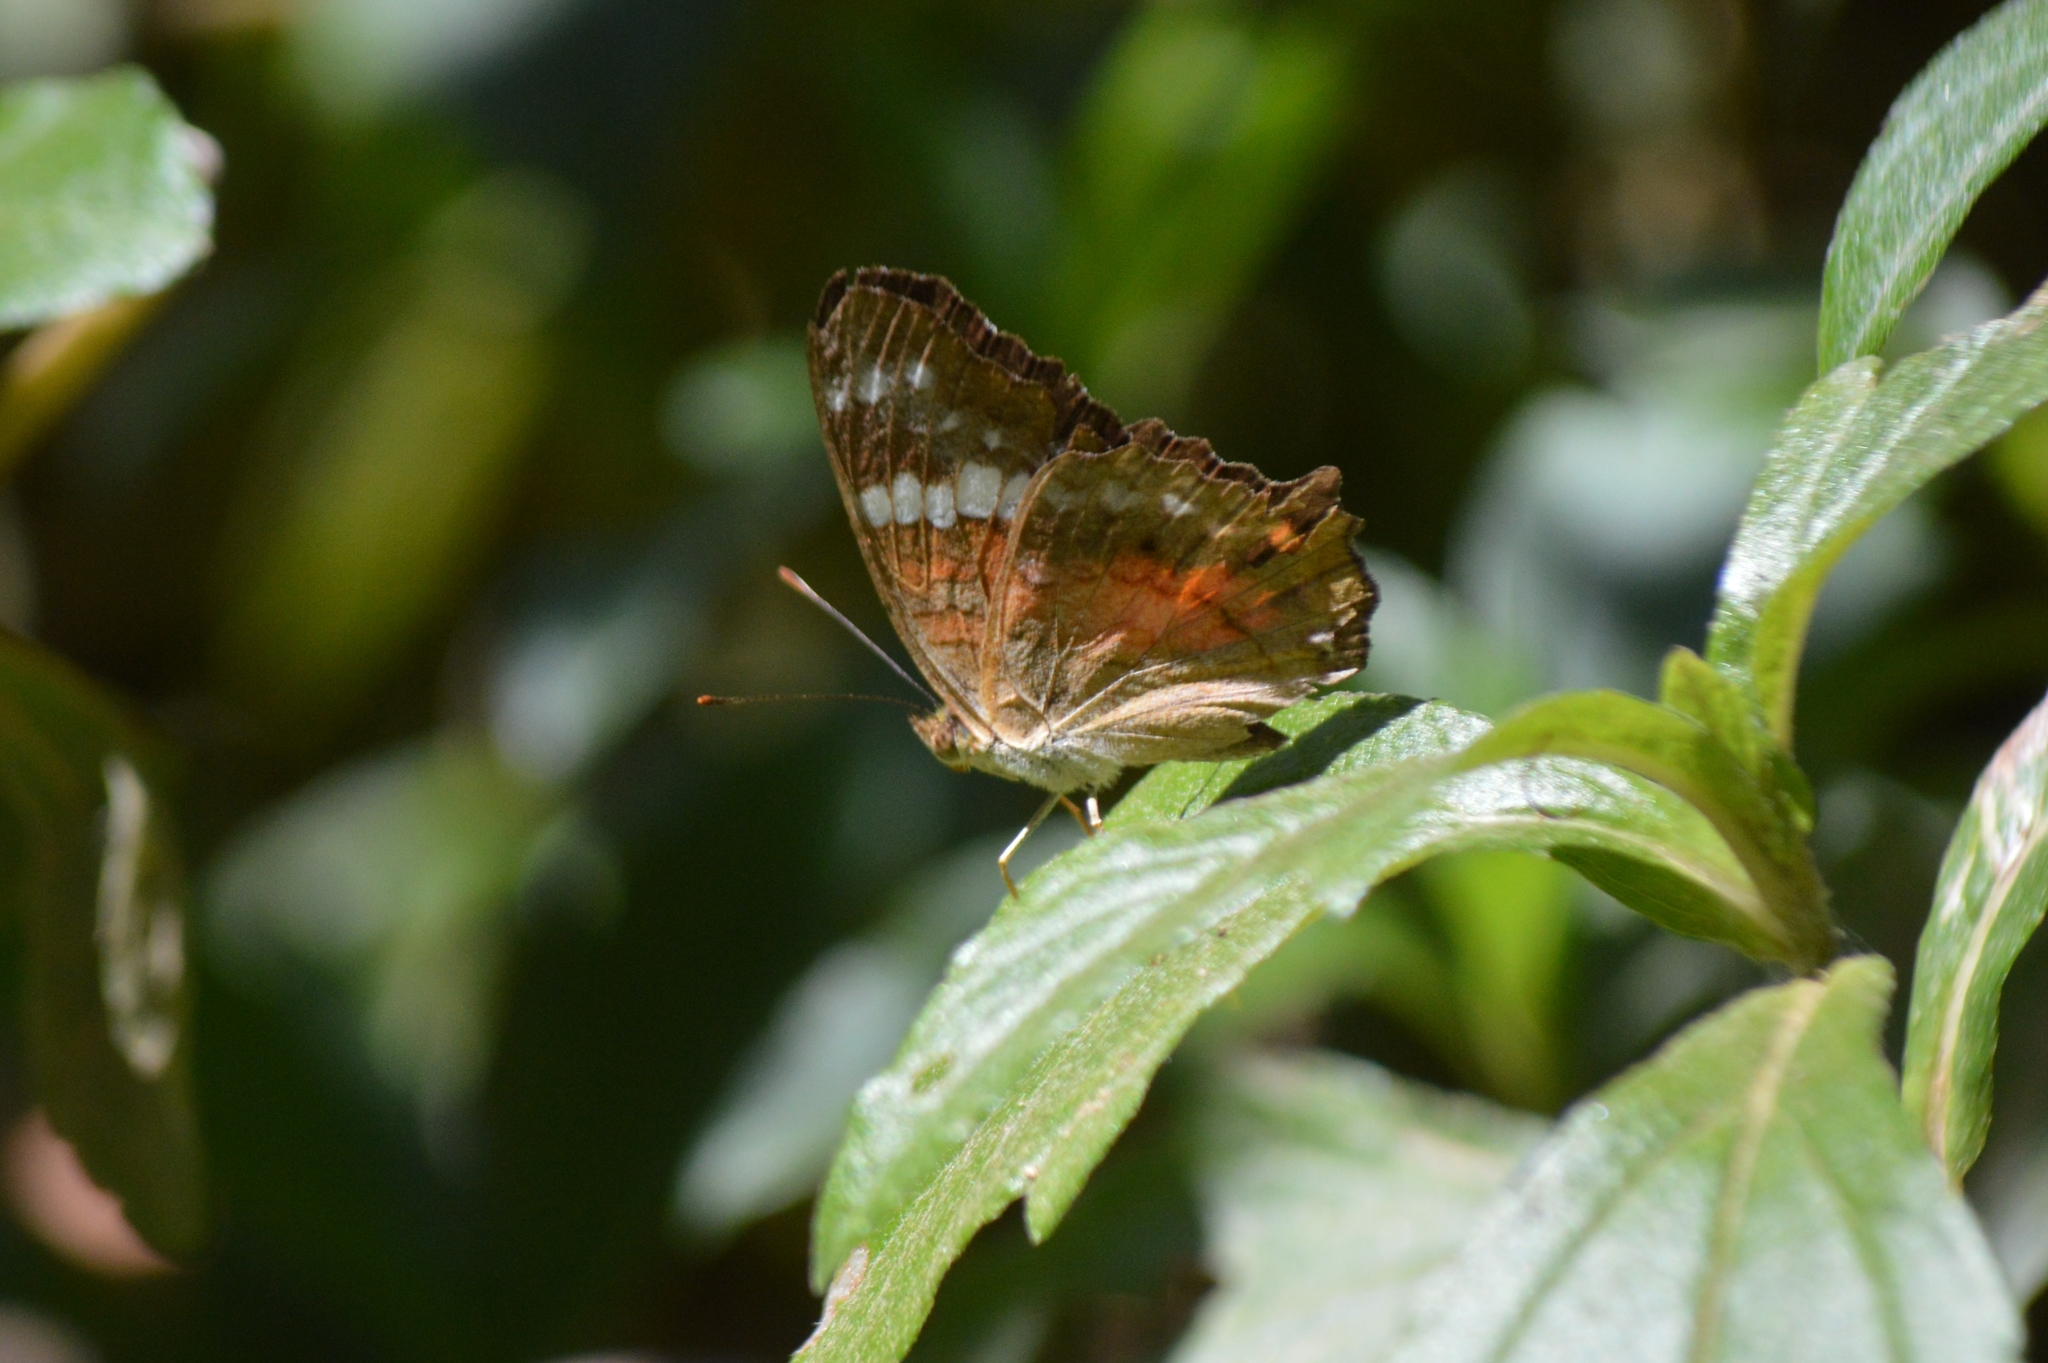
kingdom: Animalia
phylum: Arthropoda
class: Insecta
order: Lepidoptera
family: Nymphalidae
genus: Anartia
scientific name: Anartia amathea
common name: Red peacock
